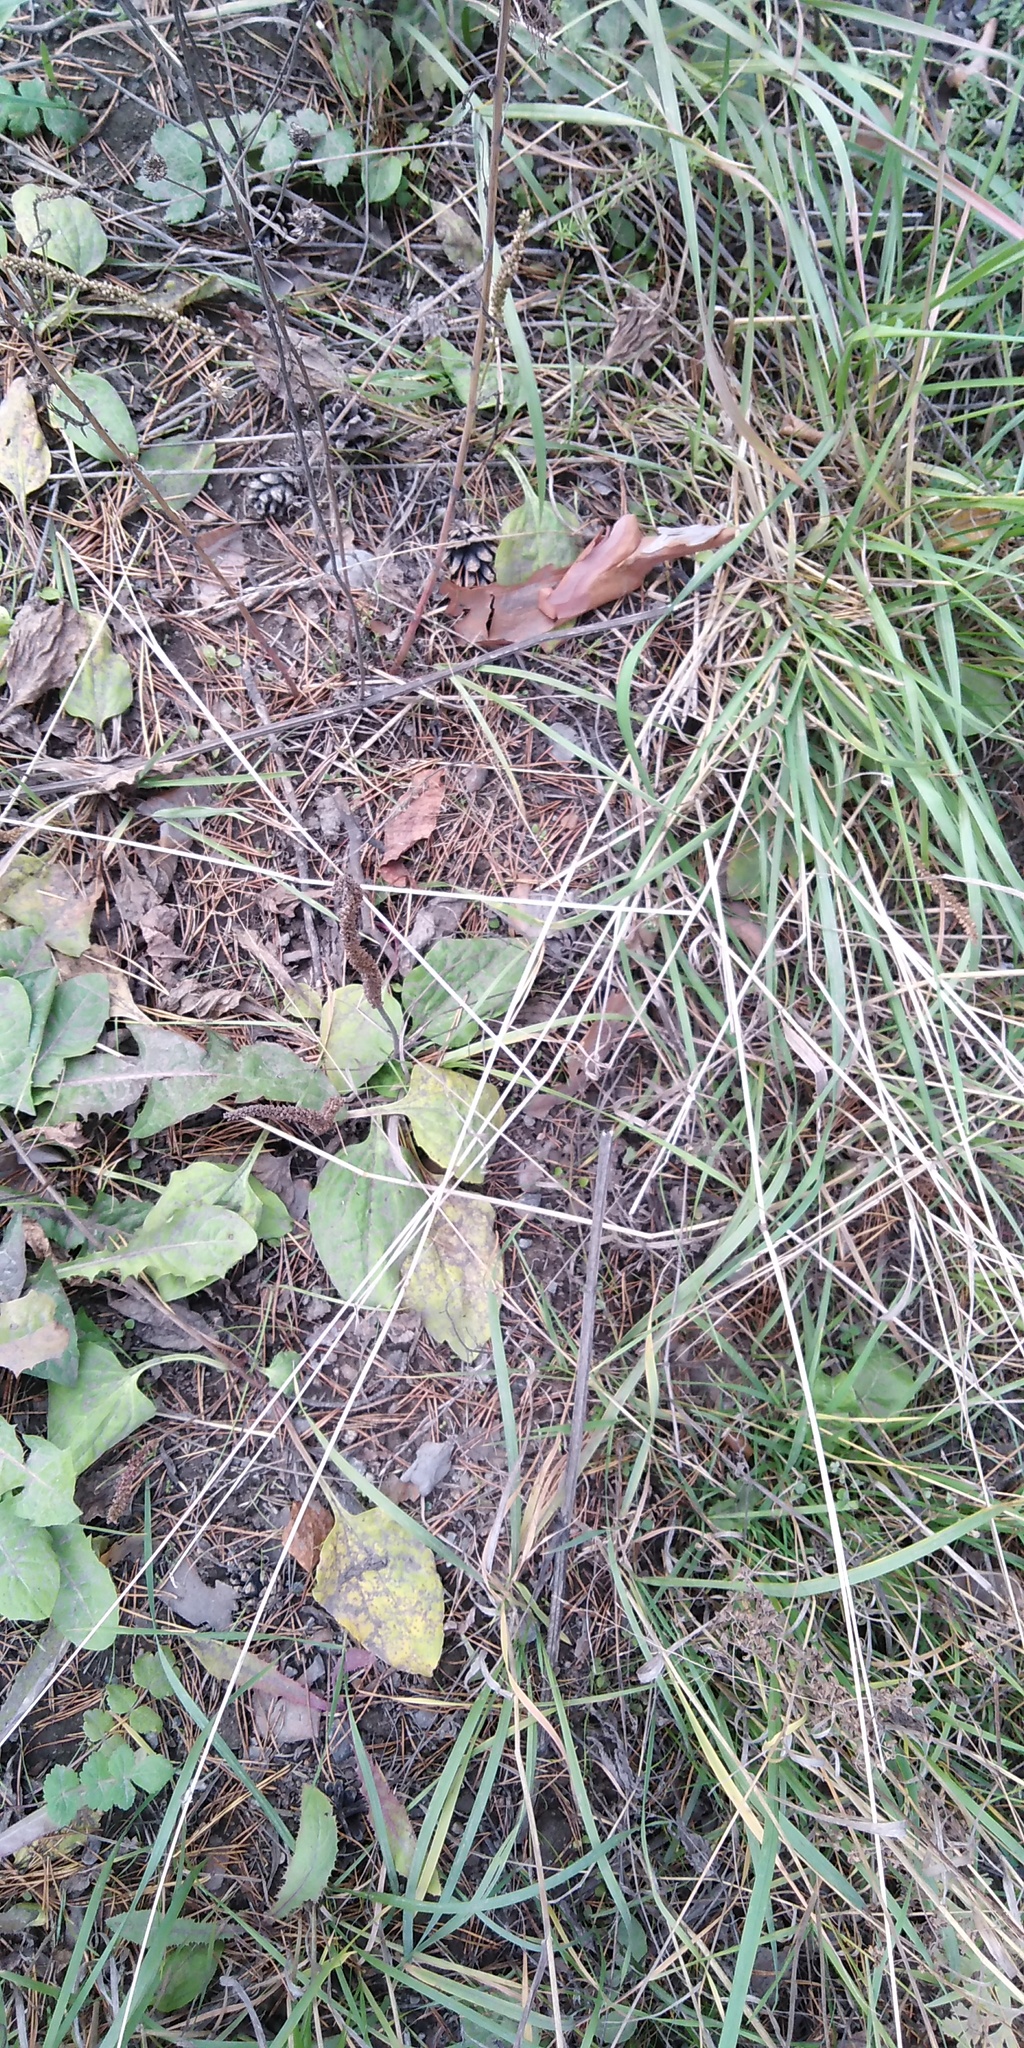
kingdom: Plantae
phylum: Tracheophyta
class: Magnoliopsida
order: Lamiales
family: Plantaginaceae
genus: Plantago
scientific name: Plantago major
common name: Common plantain
